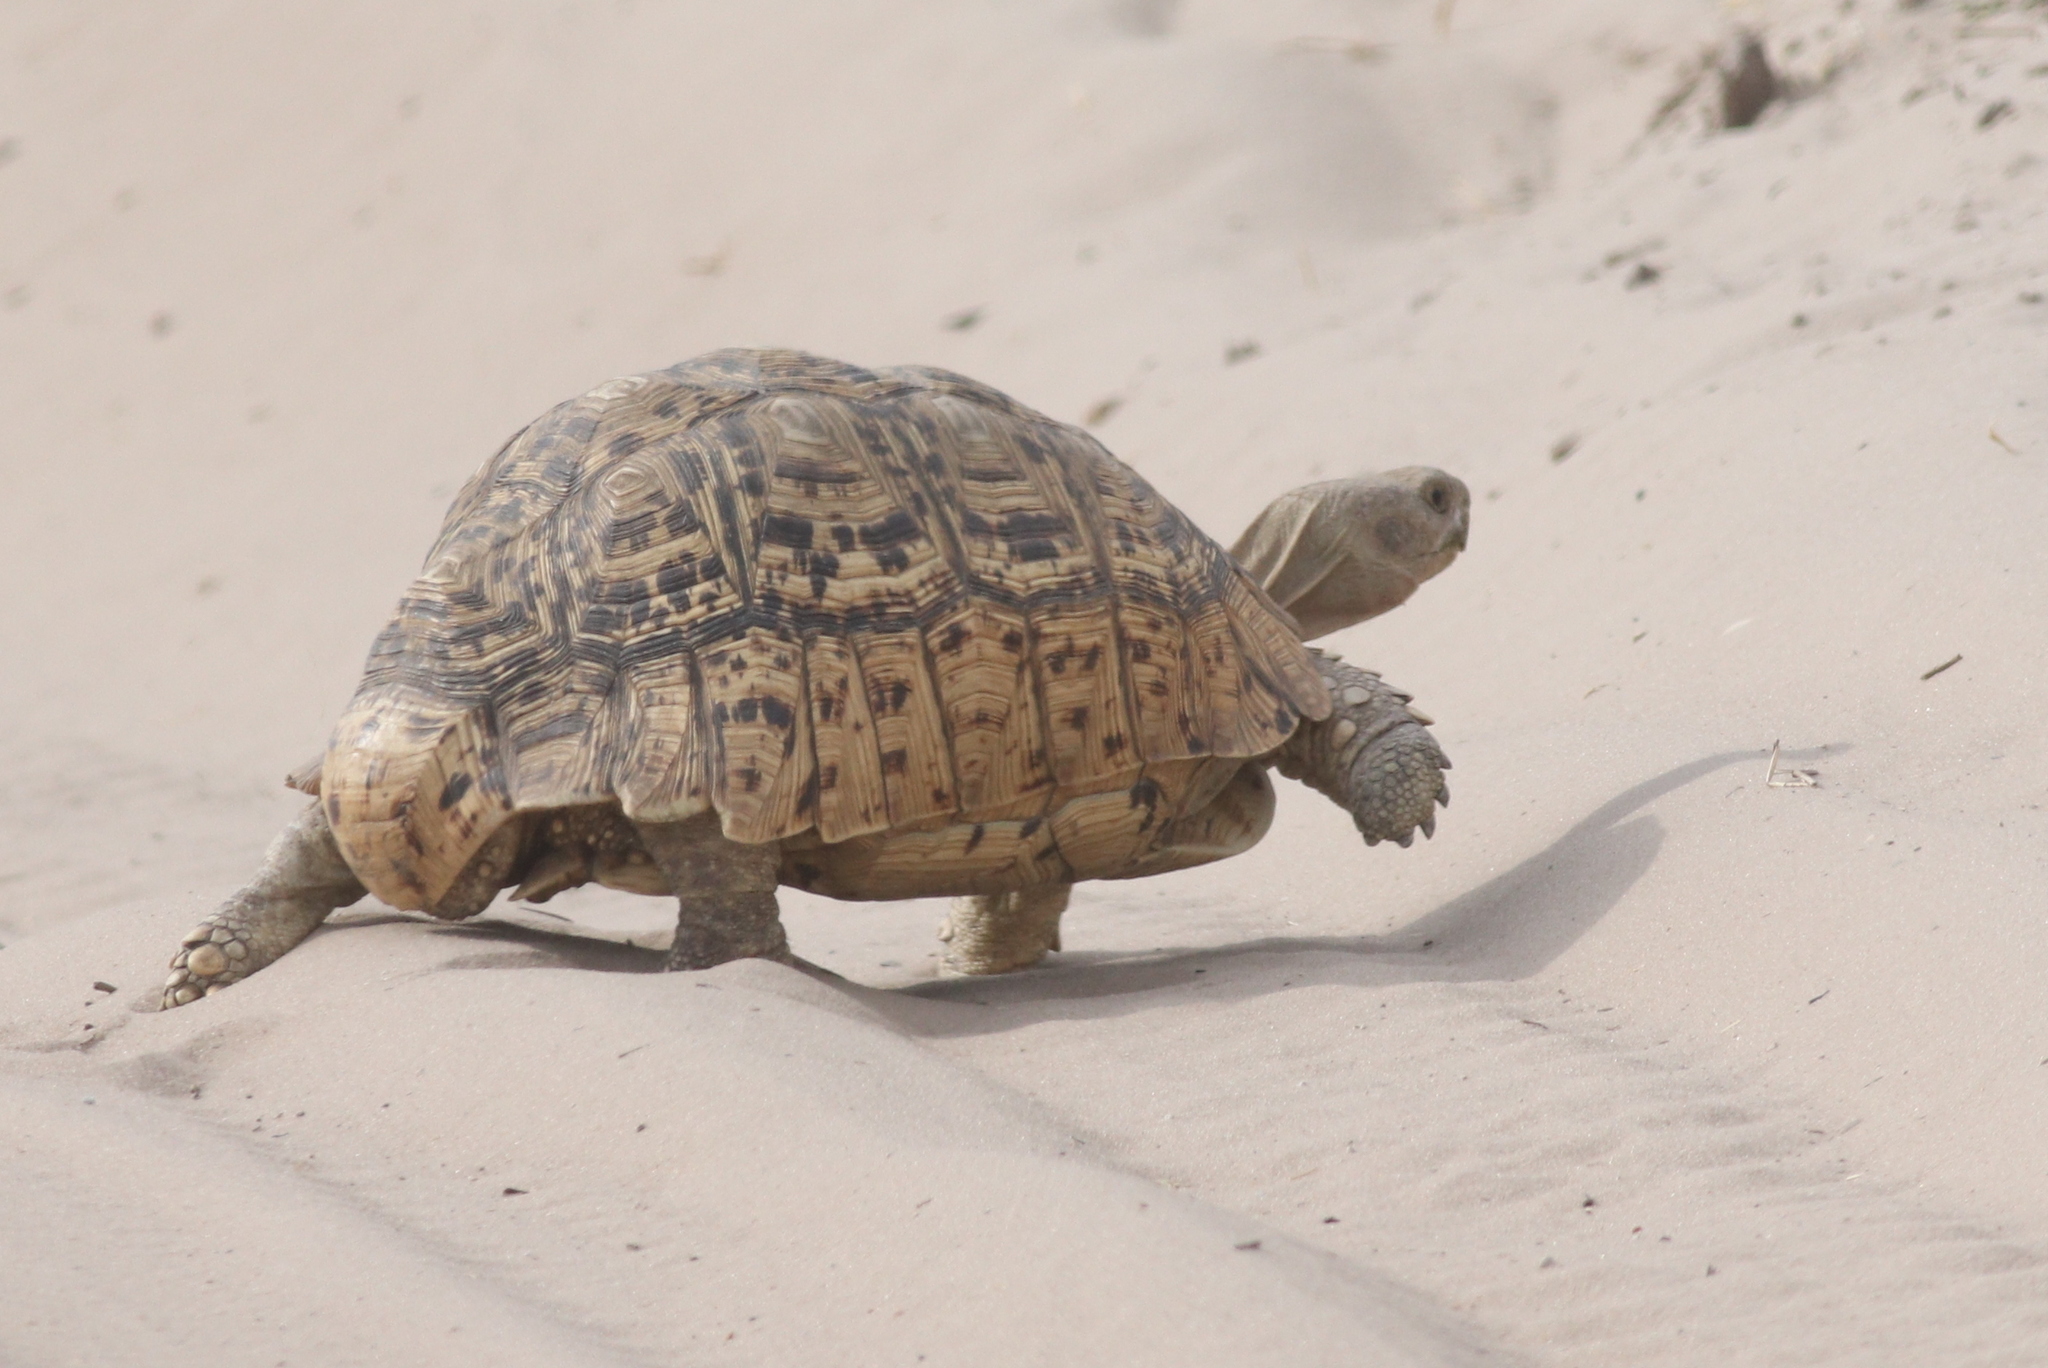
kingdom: Animalia
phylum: Chordata
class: Testudines
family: Testudinidae
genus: Stigmochelys
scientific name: Stigmochelys pardalis
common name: Leopard tortoise
